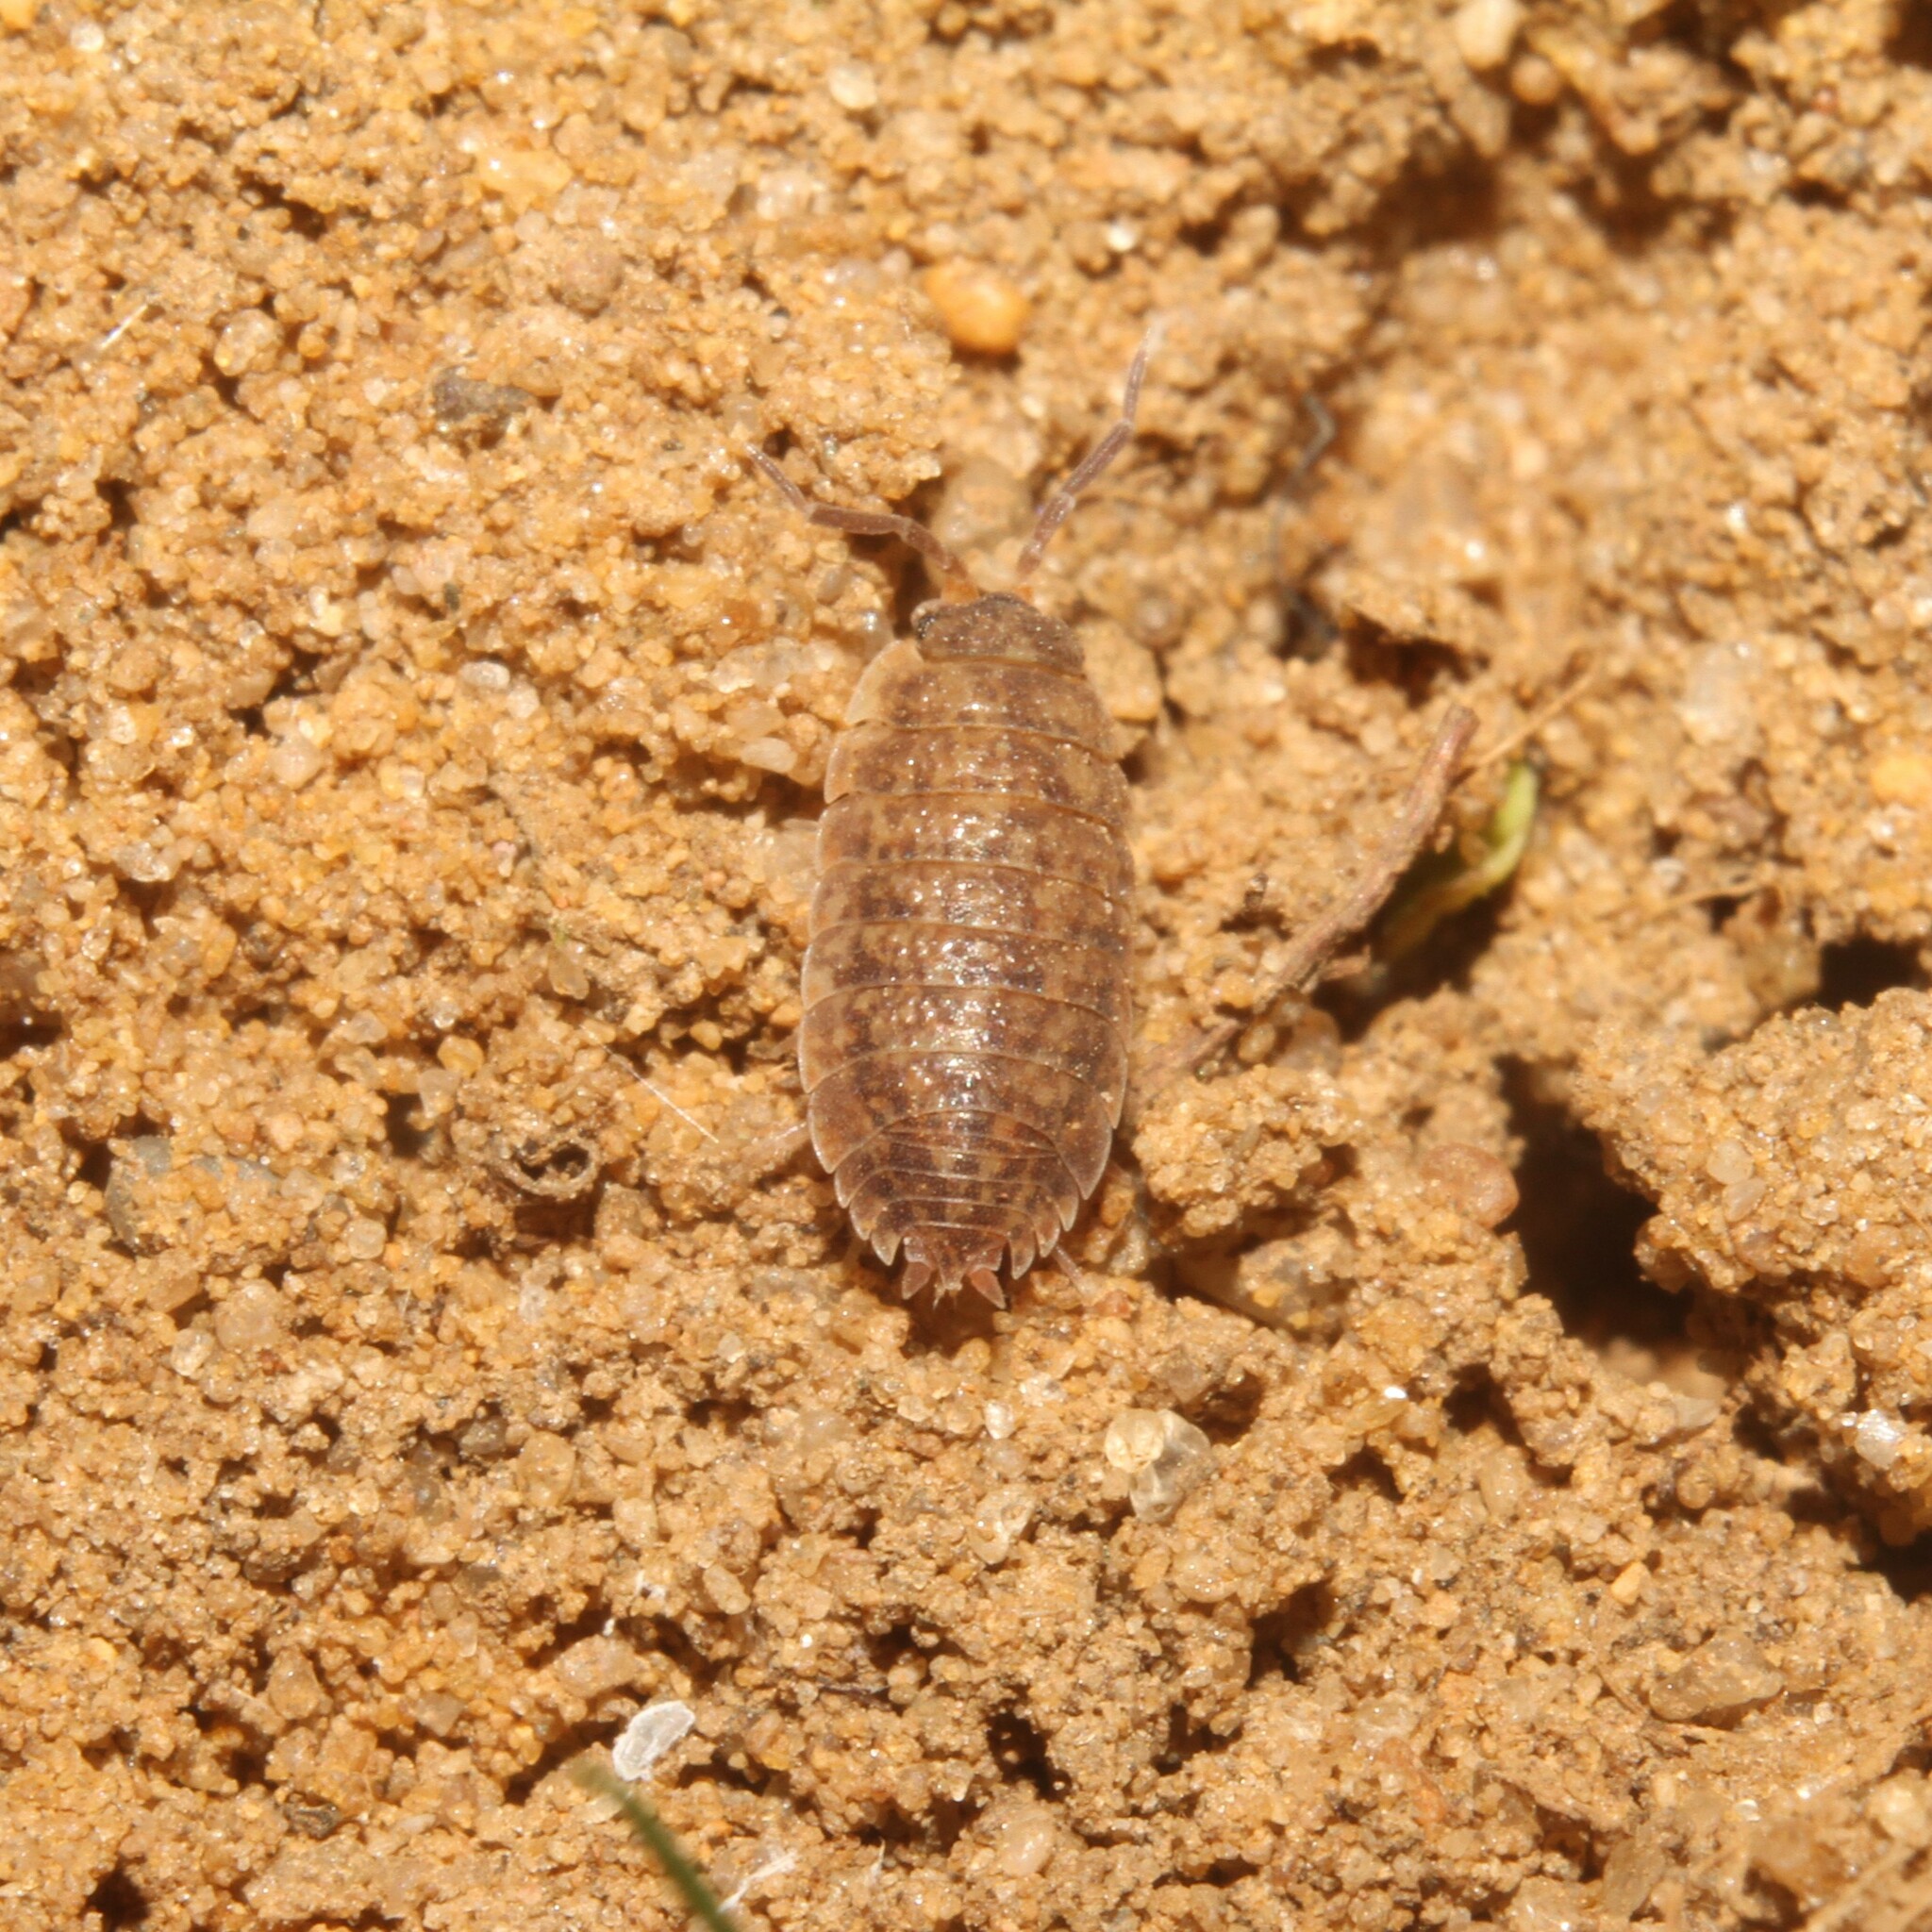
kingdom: Animalia
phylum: Arthropoda
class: Malacostraca
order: Isopoda
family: Porcellionidae
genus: Porcellio
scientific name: Porcellio scaber
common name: Common rough woodlouse
